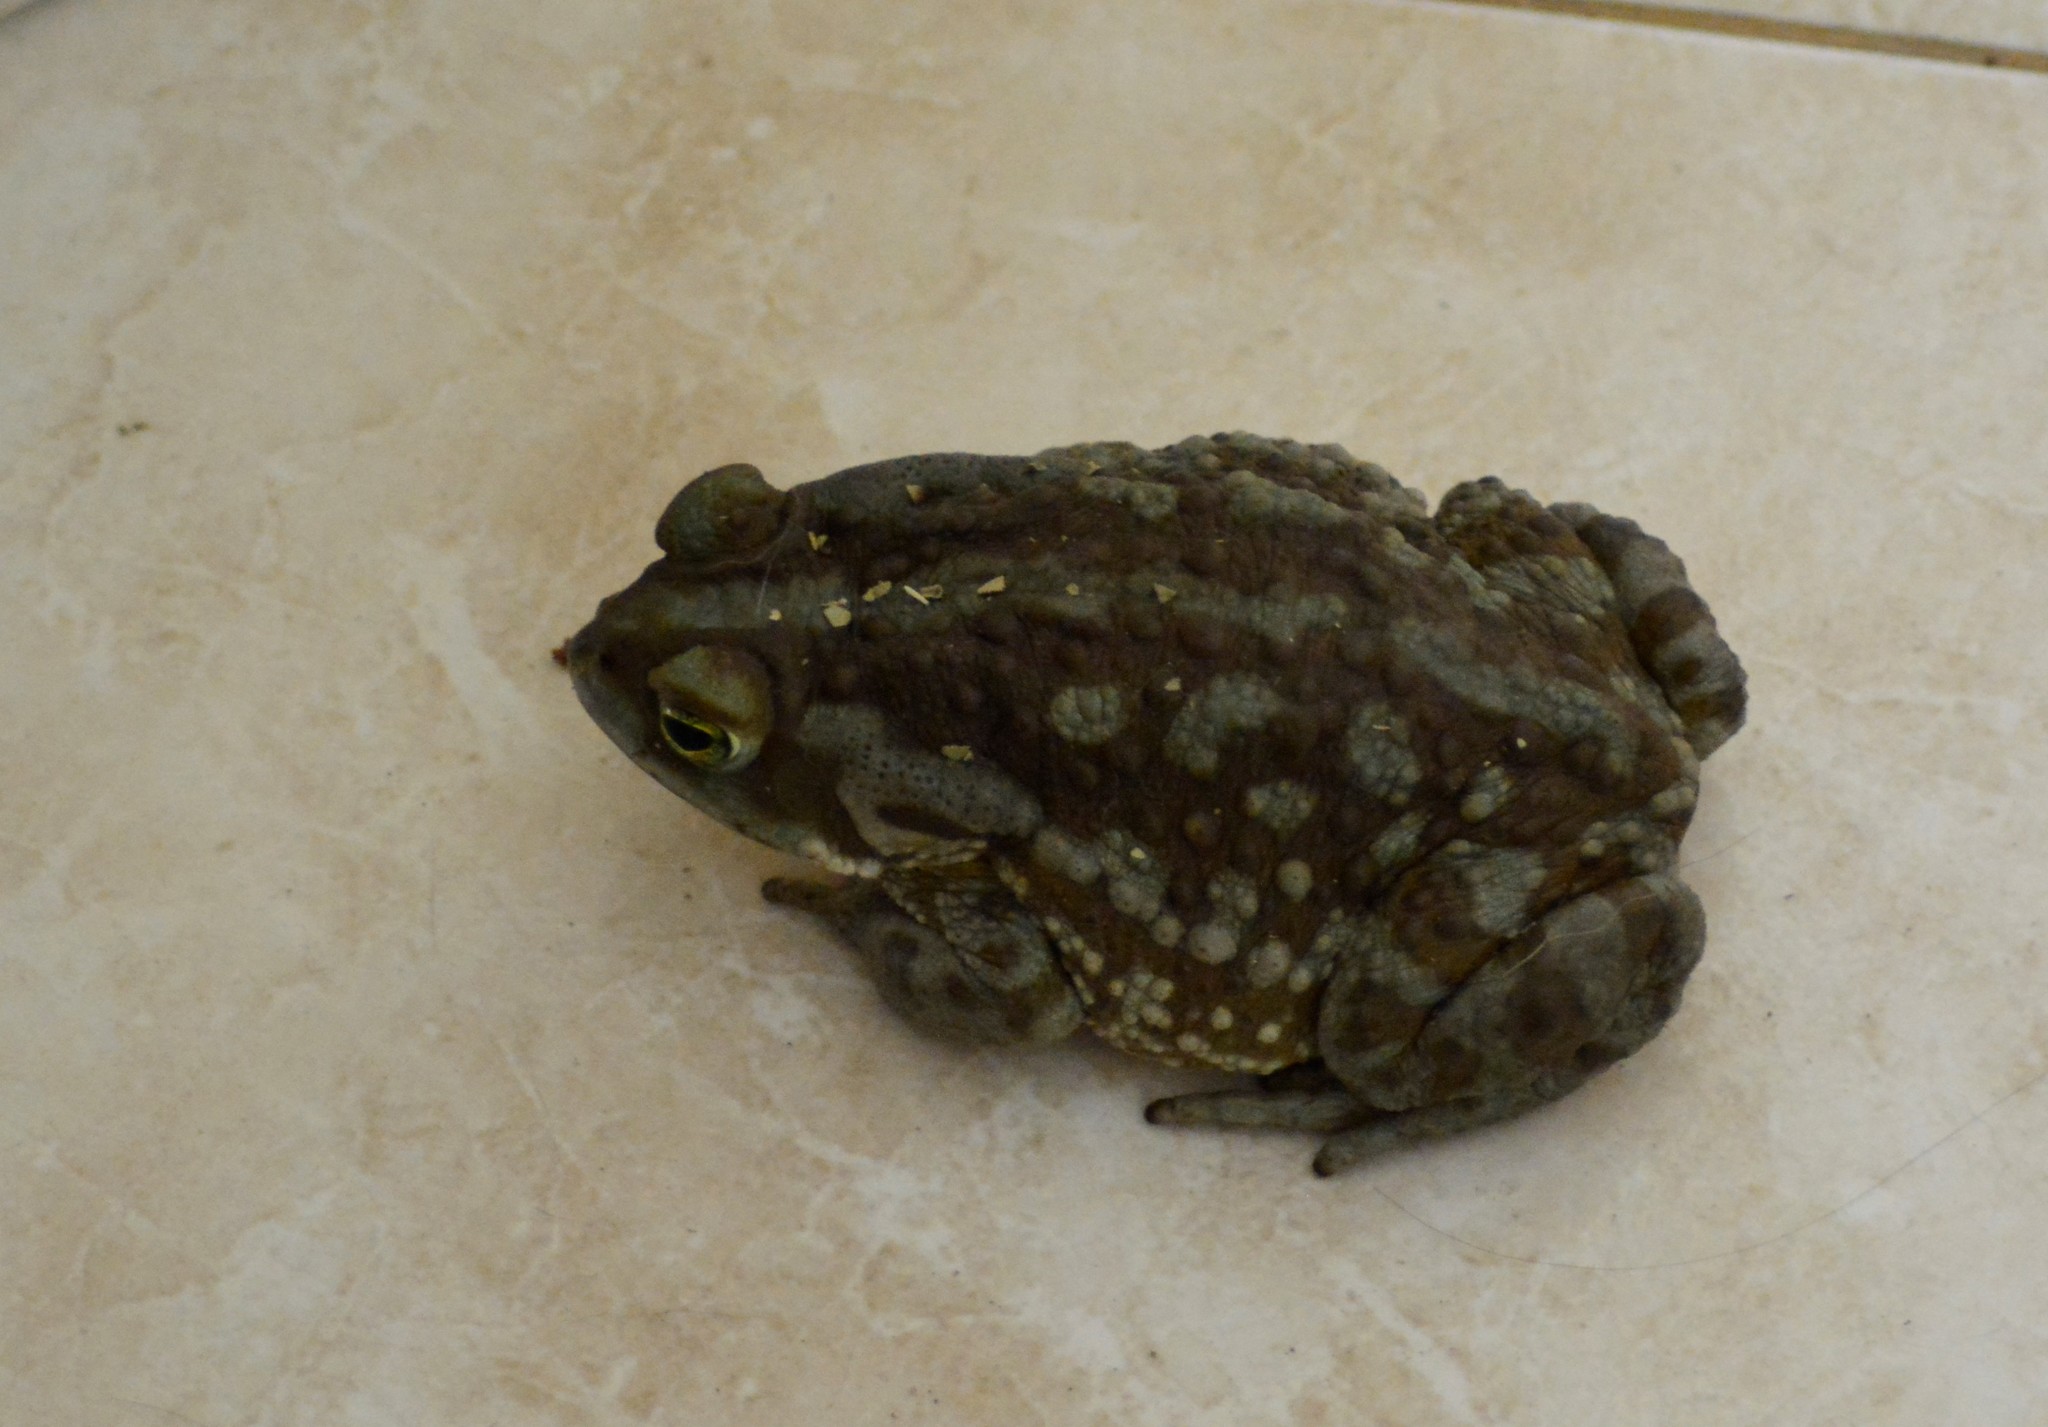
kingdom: Animalia
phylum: Chordata
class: Amphibia
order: Anura
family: Bufonidae
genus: Rhinella
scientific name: Rhinella arenarum
